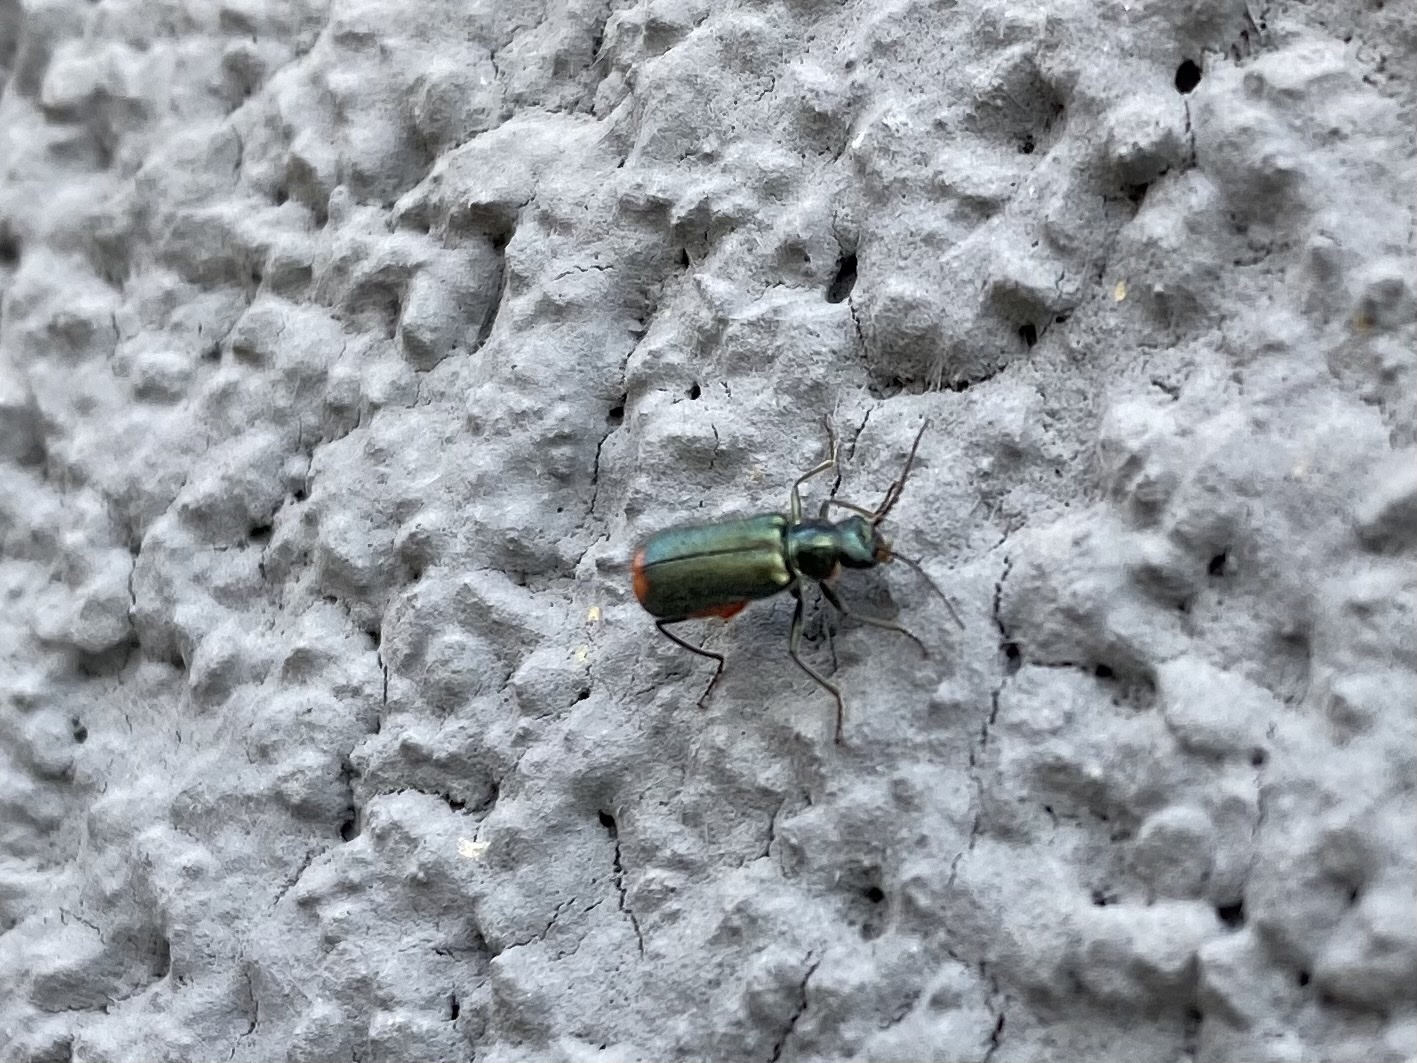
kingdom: Animalia
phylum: Arthropoda
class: Insecta
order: Coleoptera
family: Melyridae
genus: Malachius
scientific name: Malachius bipustulatus
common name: Malachite beetle
